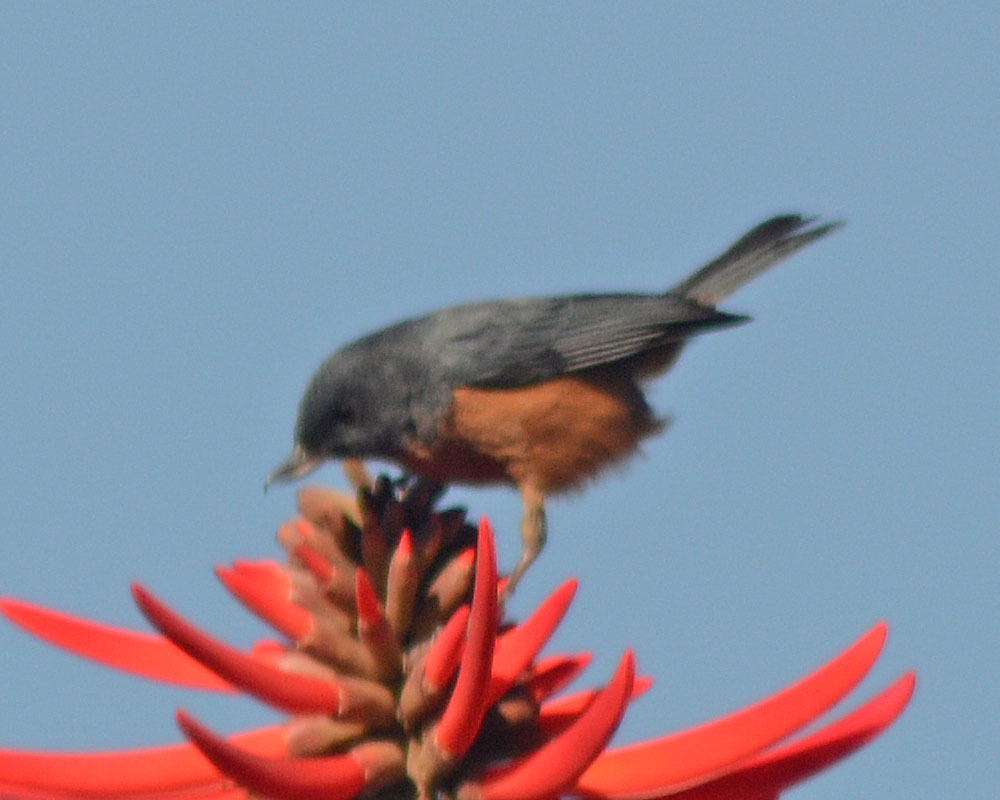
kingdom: Animalia
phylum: Chordata
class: Aves
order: Passeriformes
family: Thraupidae
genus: Diglossa
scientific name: Diglossa baritula
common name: Cinnamon-bellied flowerpiercer
